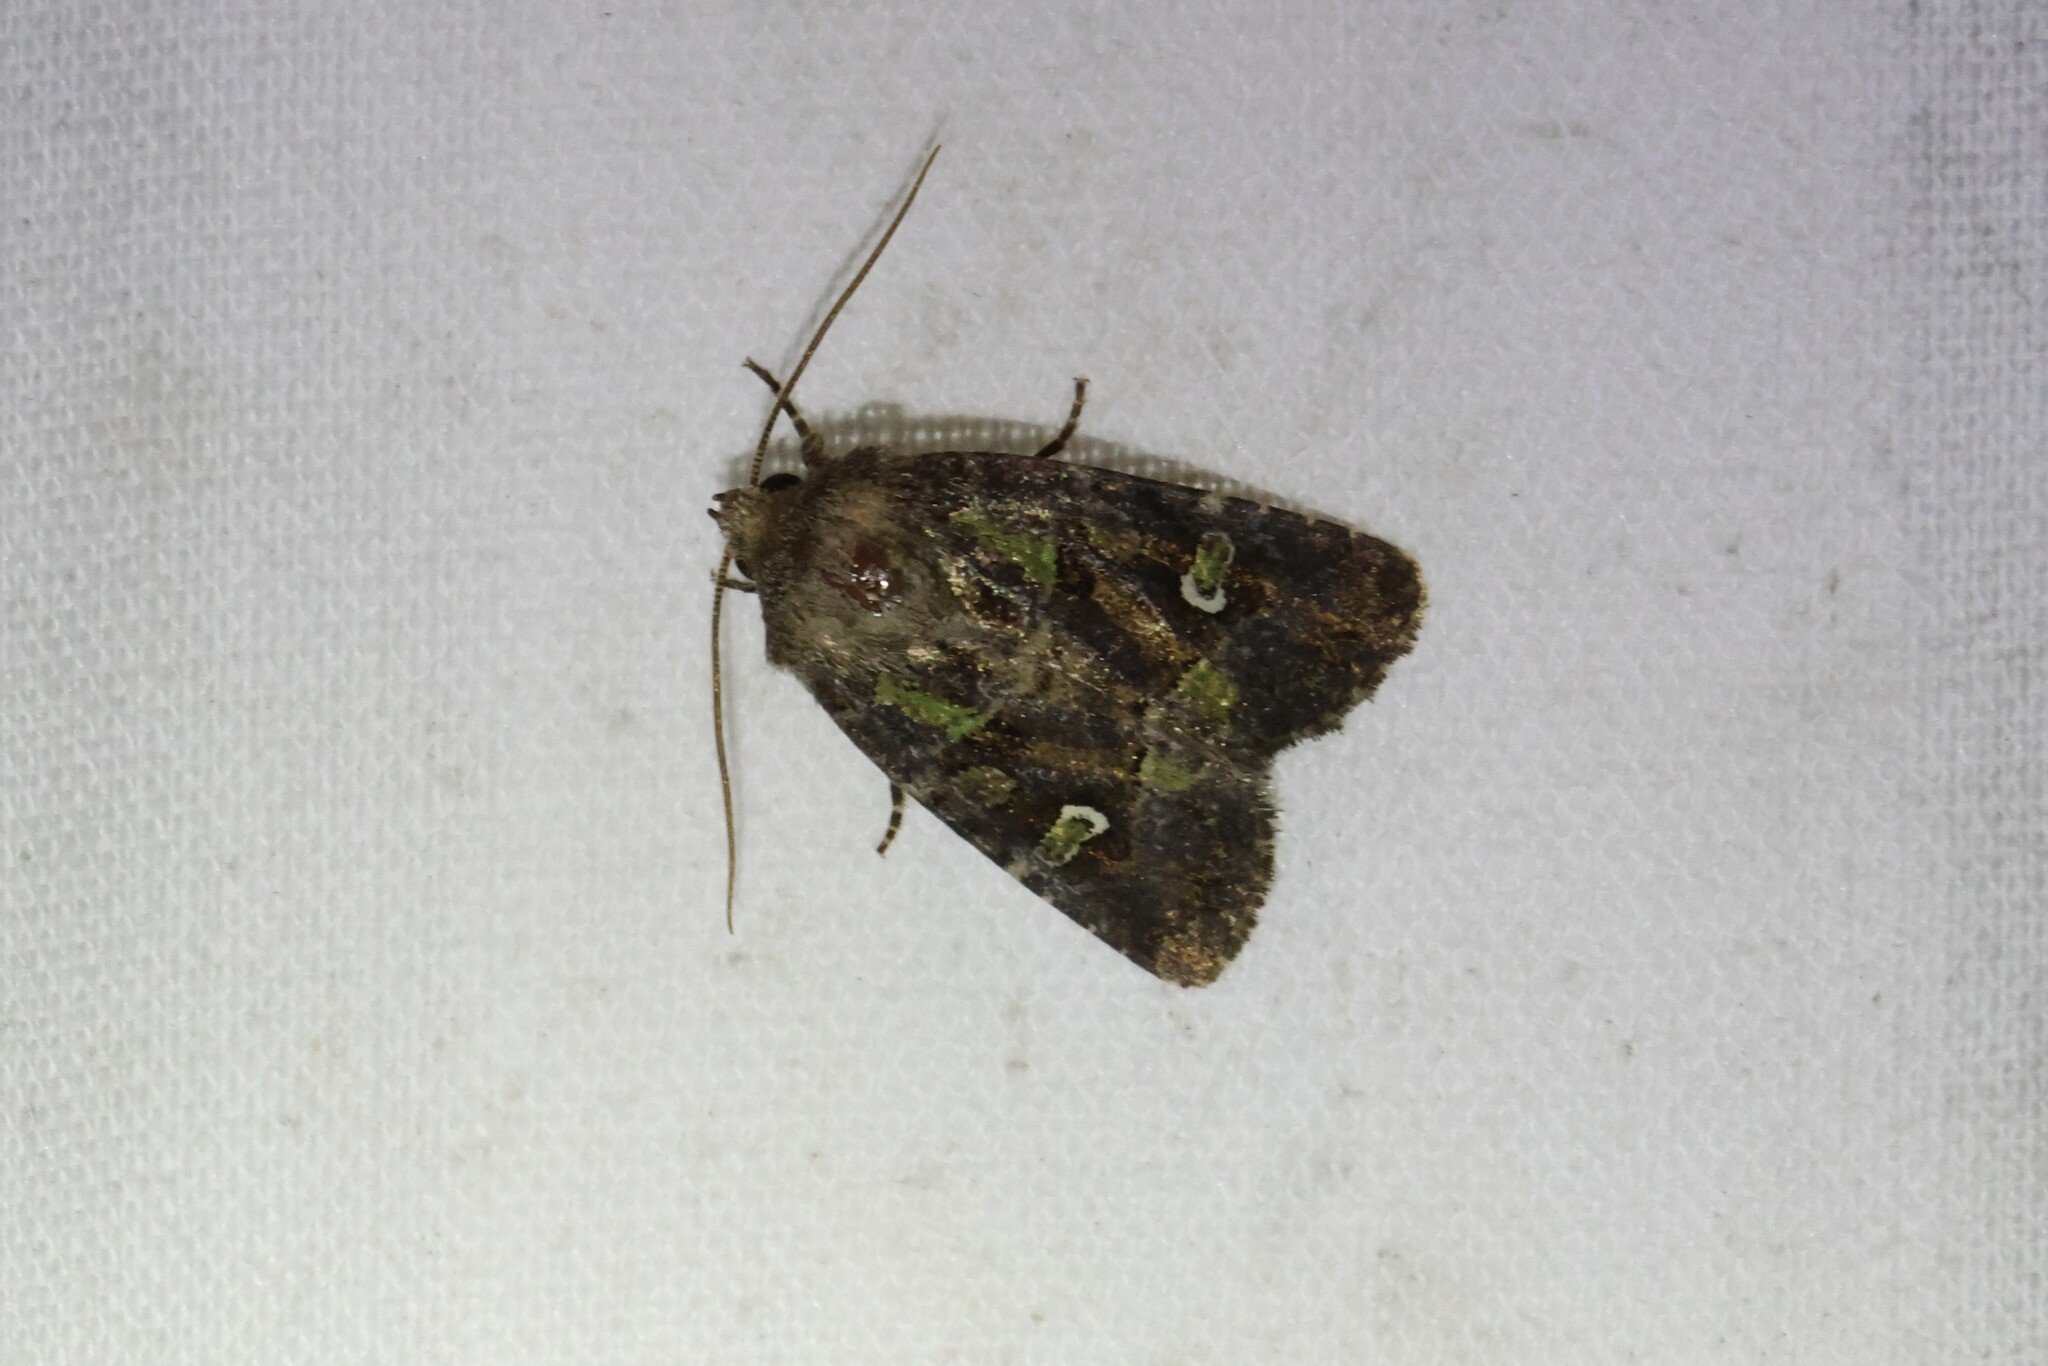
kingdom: Animalia
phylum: Arthropoda
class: Insecta
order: Lepidoptera
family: Noctuidae
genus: Lacinipolia
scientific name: Lacinipolia renigera
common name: Kidney-spotted minor
